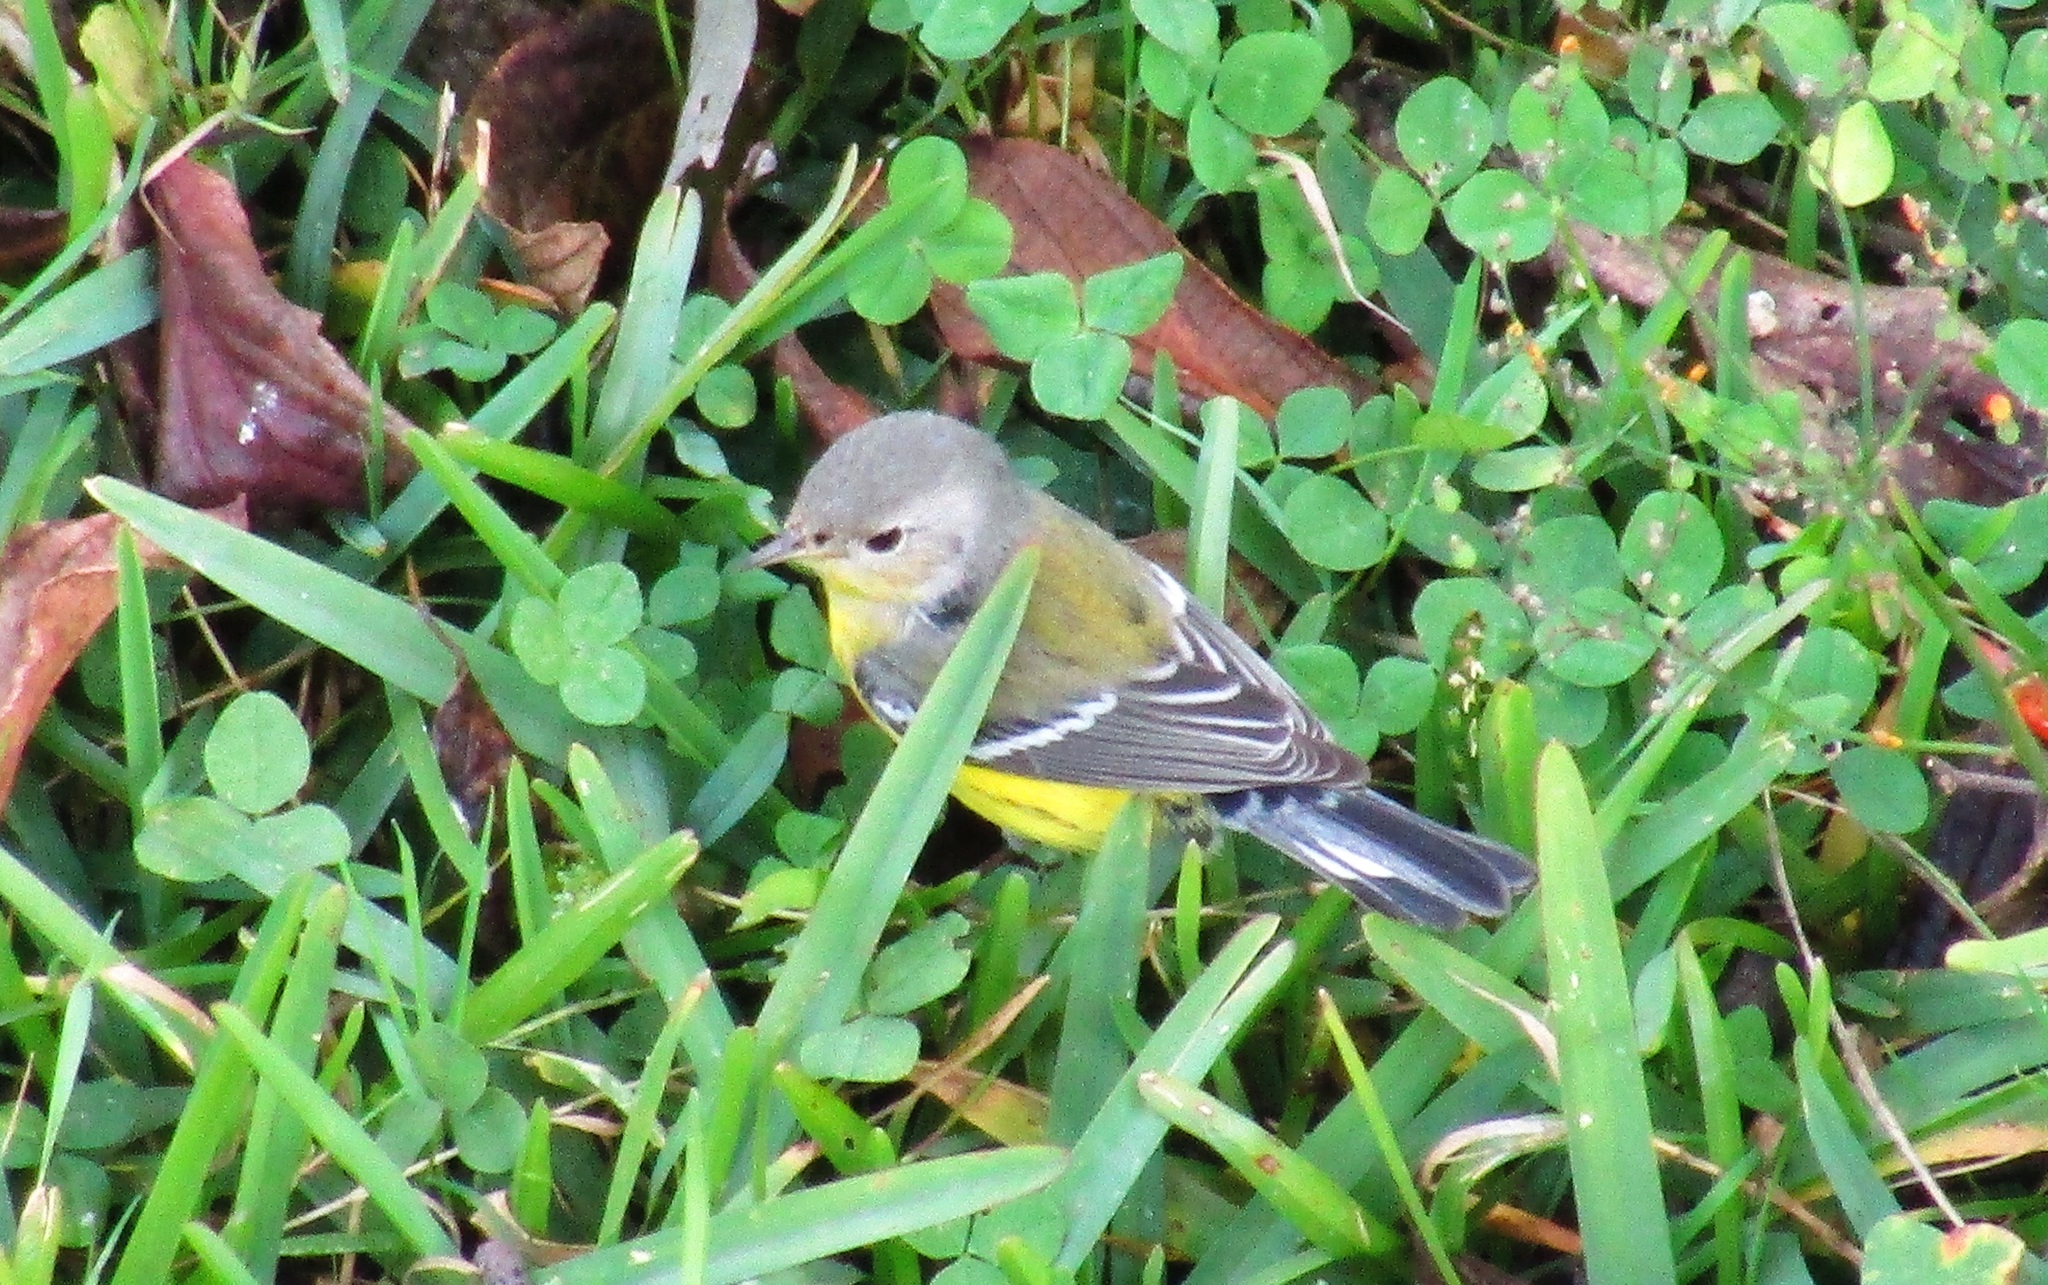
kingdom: Animalia
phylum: Chordata
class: Aves
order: Passeriformes
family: Parulidae
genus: Setophaga
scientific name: Setophaga magnolia
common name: Magnolia warbler
